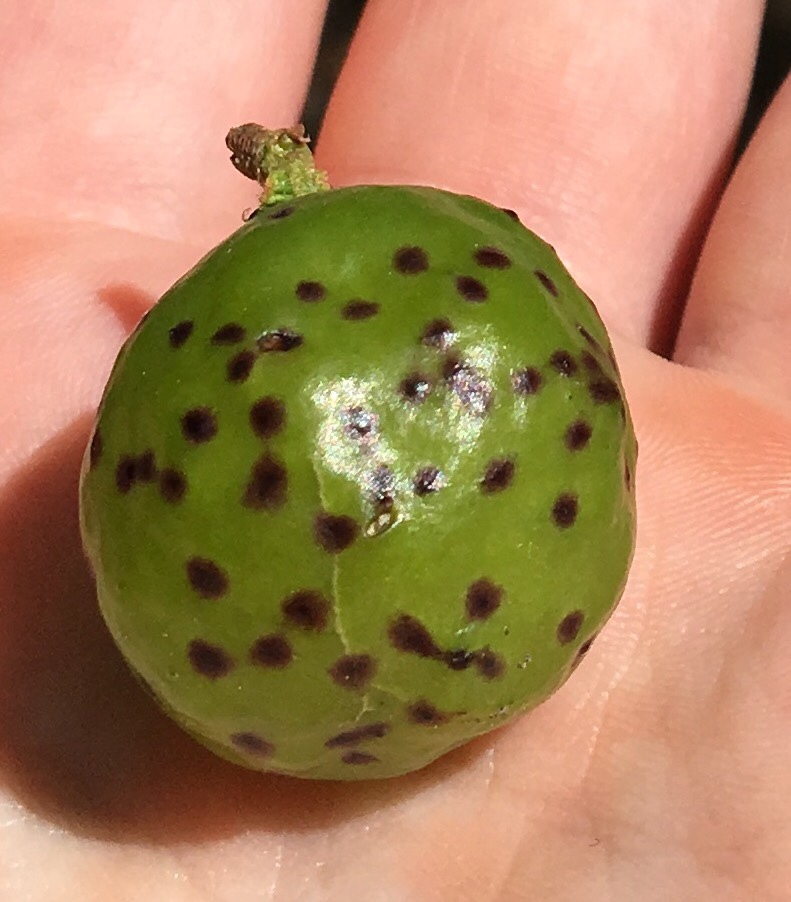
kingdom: Animalia
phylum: Arthropoda
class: Insecta
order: Hymenoptera
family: Cynipidae
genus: Amphibolips
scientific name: Amphibolips
